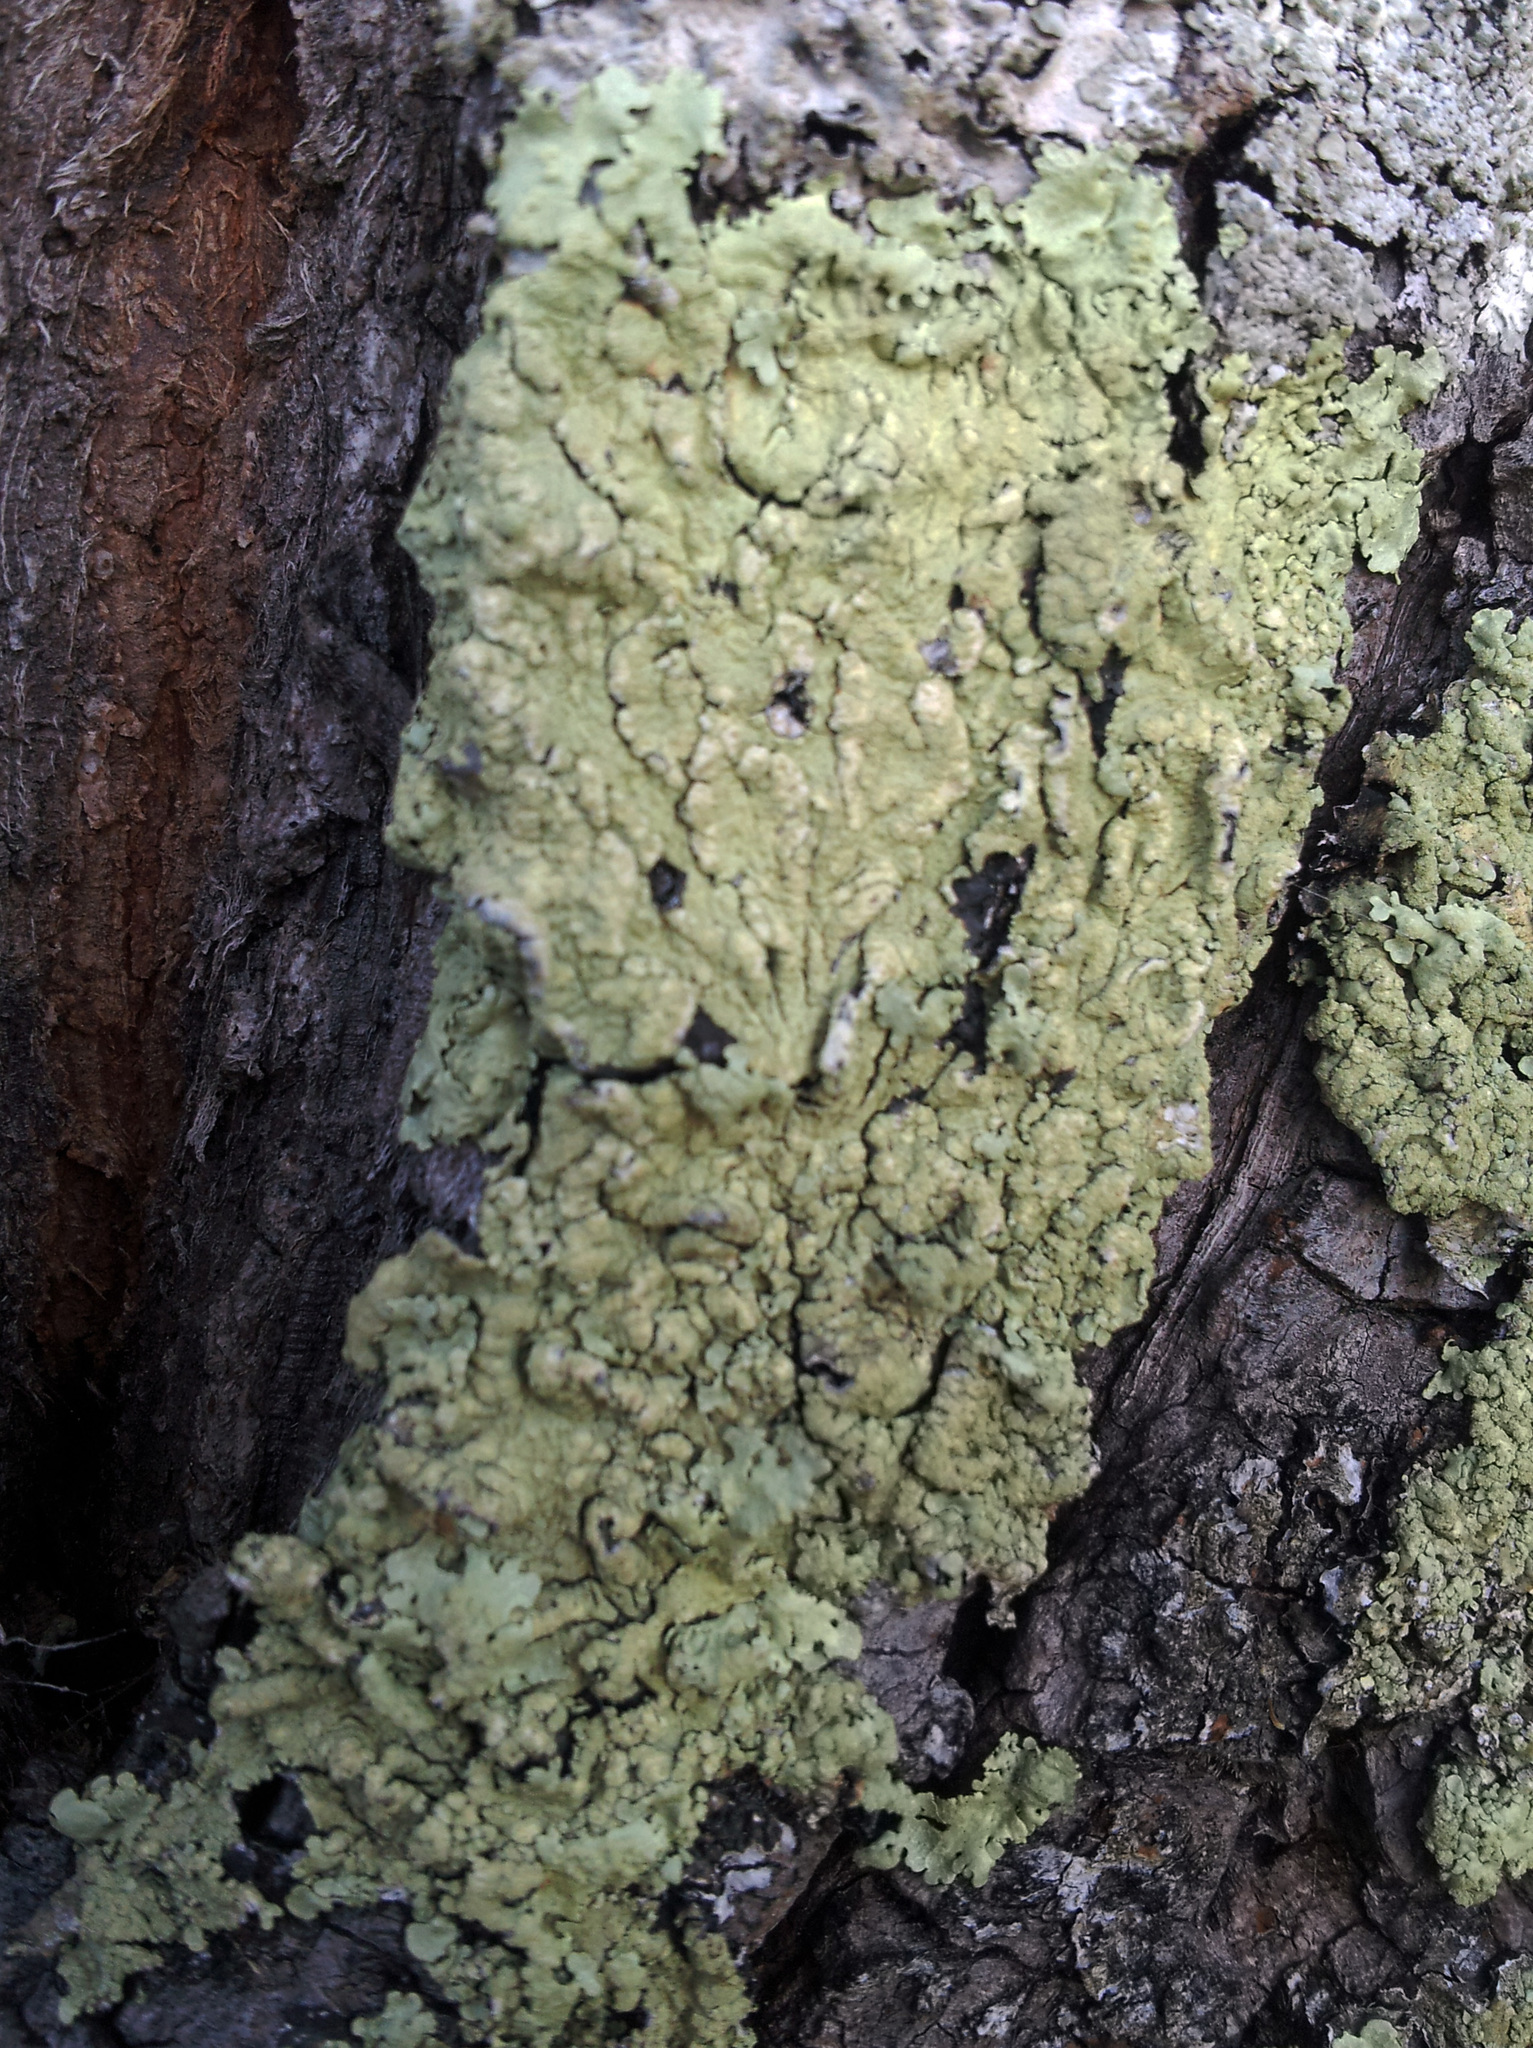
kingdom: Fungi
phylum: Ascomycota
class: Lecanoromycetes
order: Lecanorales
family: Parmeliaceae
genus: Flavoparmelia
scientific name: Flavoparmelia soredians
